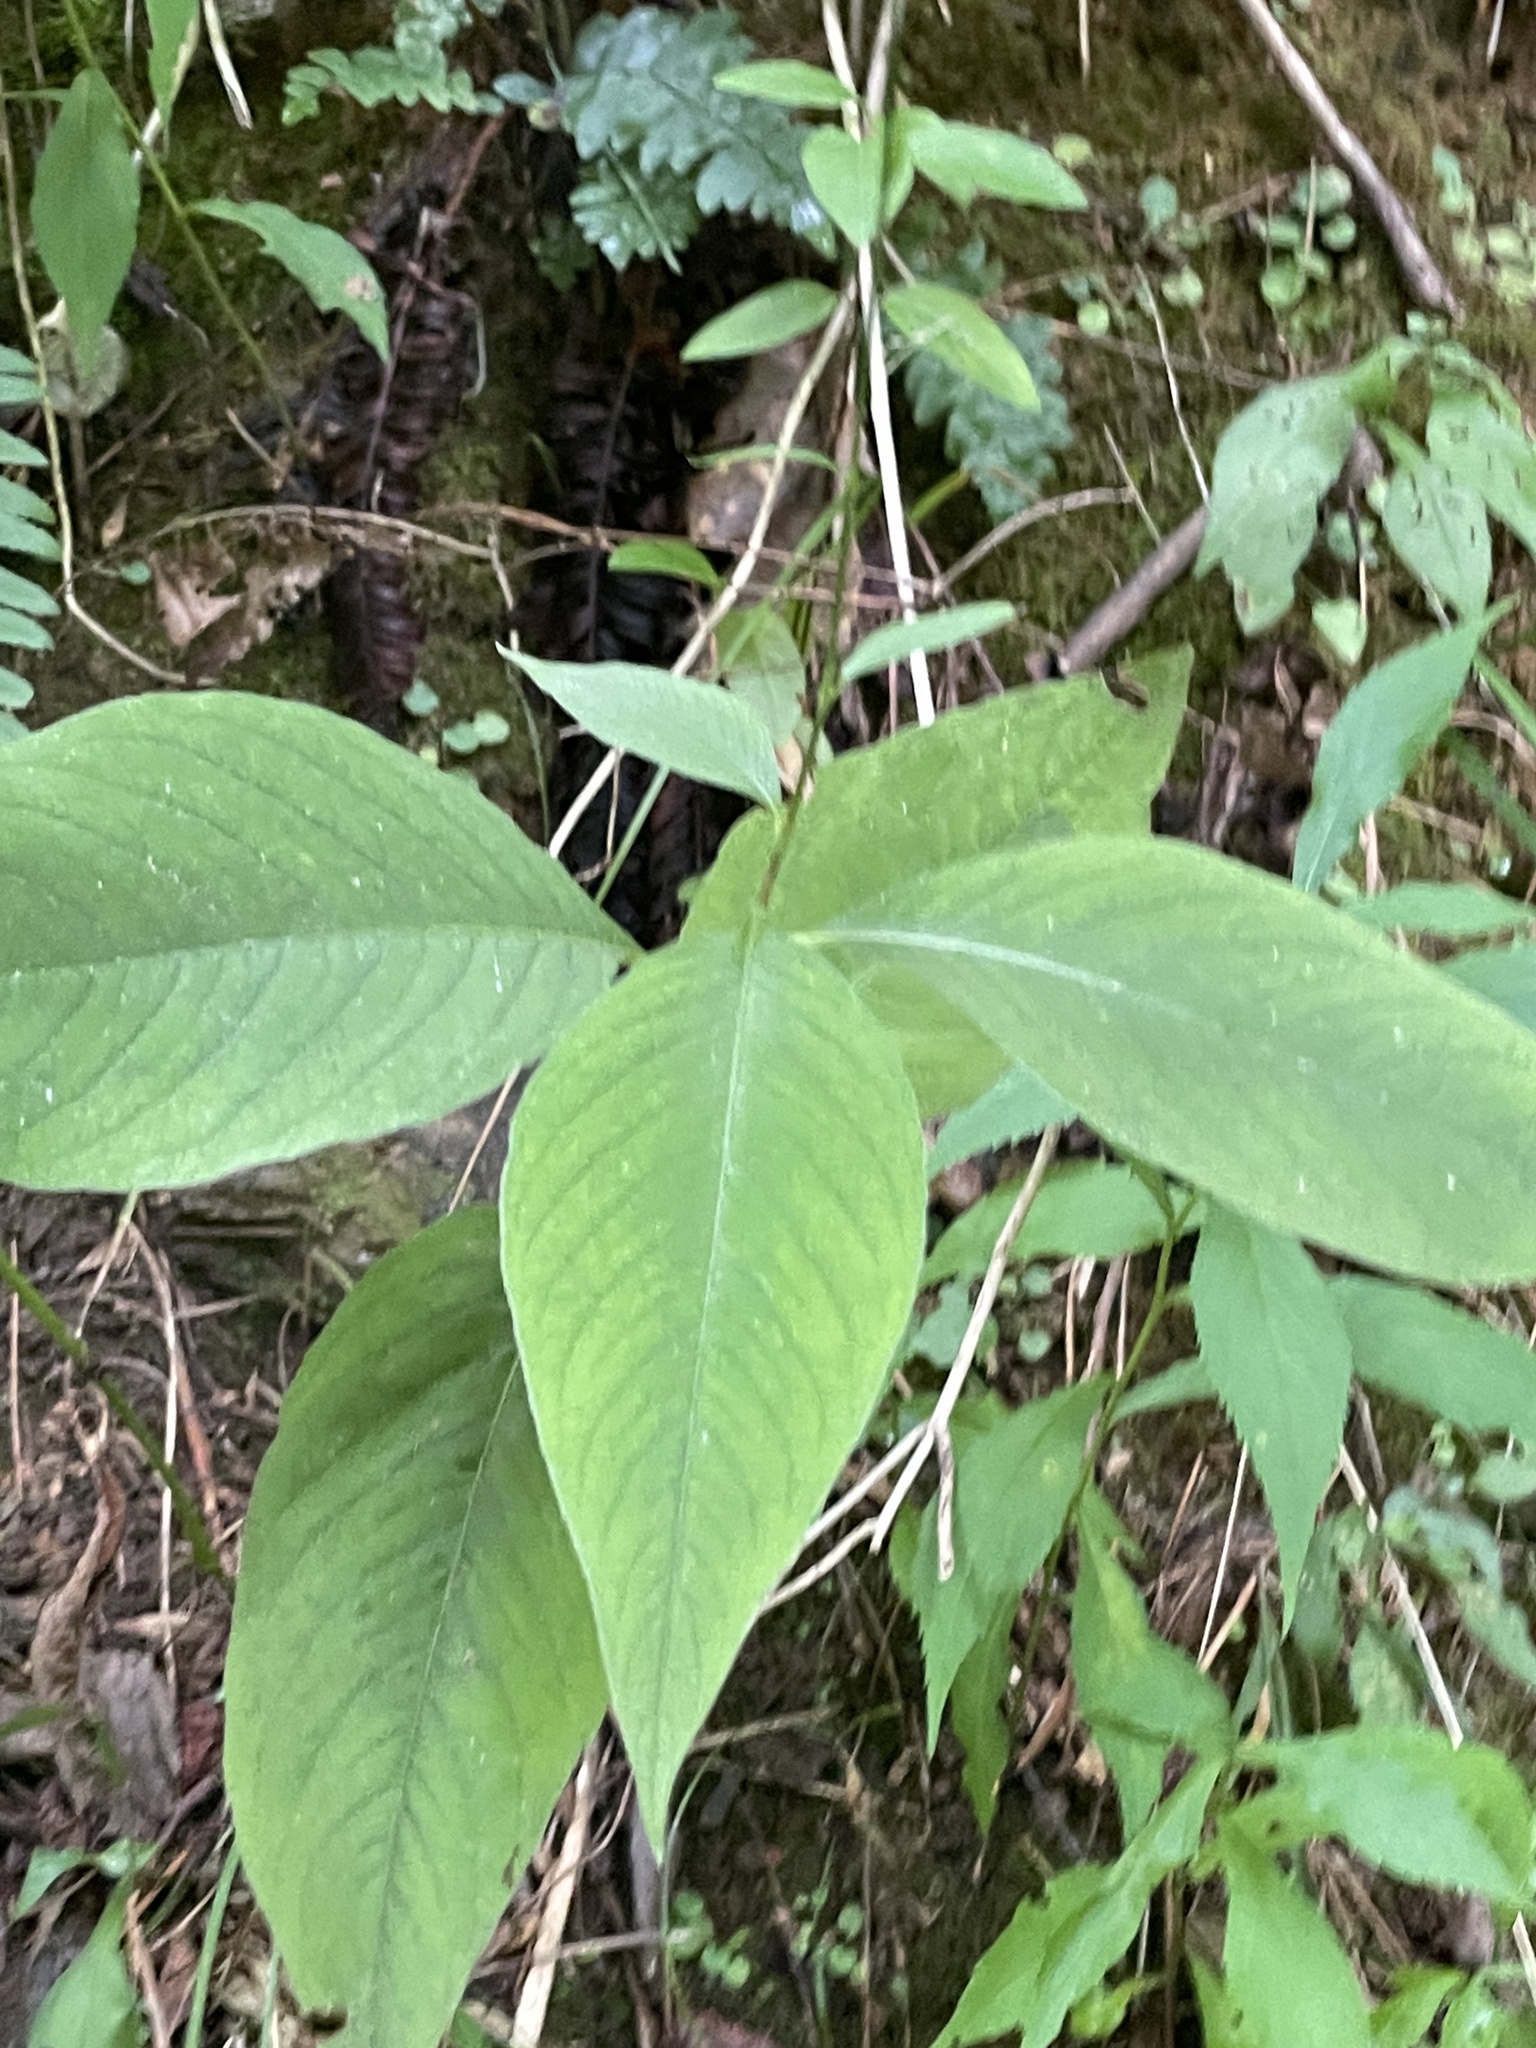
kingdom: Plantae
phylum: Tracheophyta
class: Magnoliopsida
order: Caryophyllales
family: Polygonaceae
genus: Persicaria
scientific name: Persicaria virginiana
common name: Jumpseed
